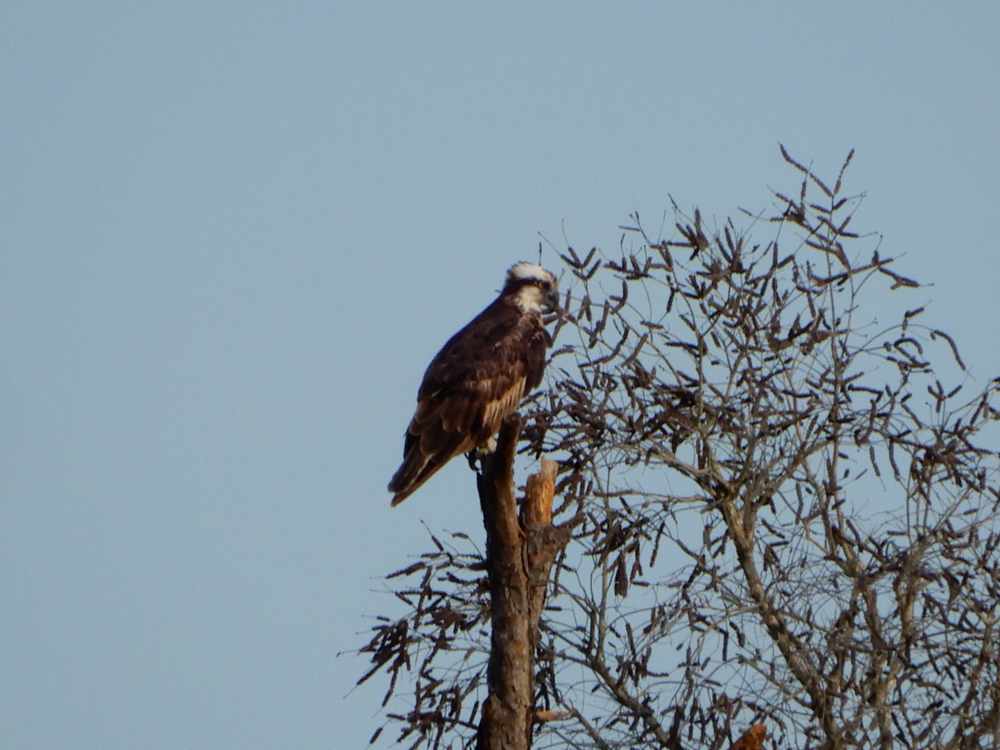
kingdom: Animalia
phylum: Chordata
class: Aves
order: Accipitriformes
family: Pandionidae
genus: Pandion
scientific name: Pandion haliaetus
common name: Osprey
